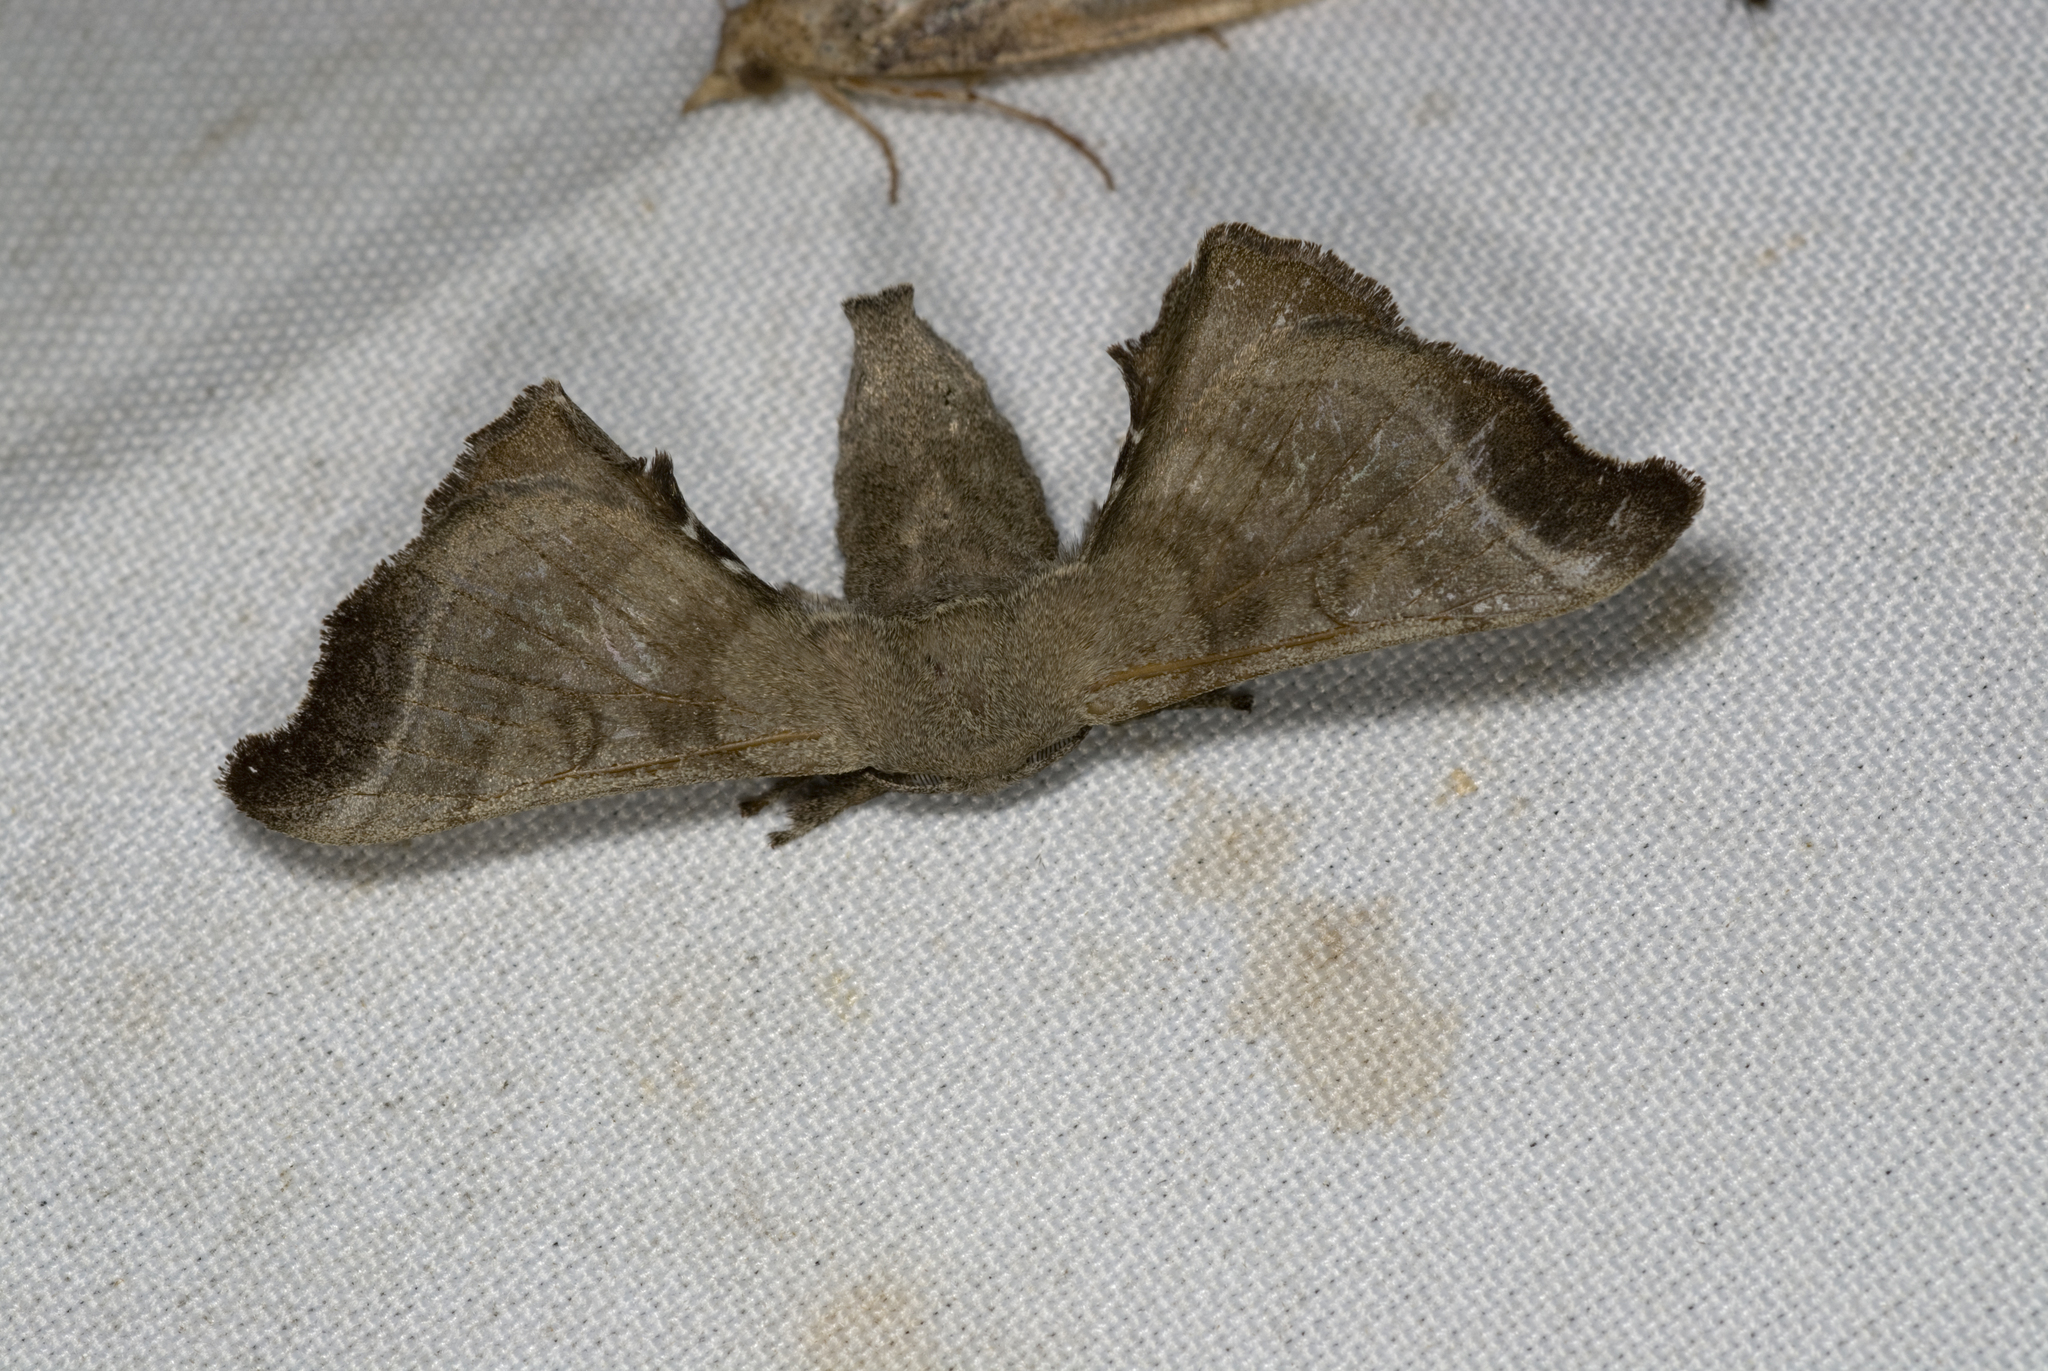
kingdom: Animalia
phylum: Arthropoda
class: Insecta
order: Lepidoptera
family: Bombycidae
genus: Bombyx
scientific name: Bombyx mandarina
